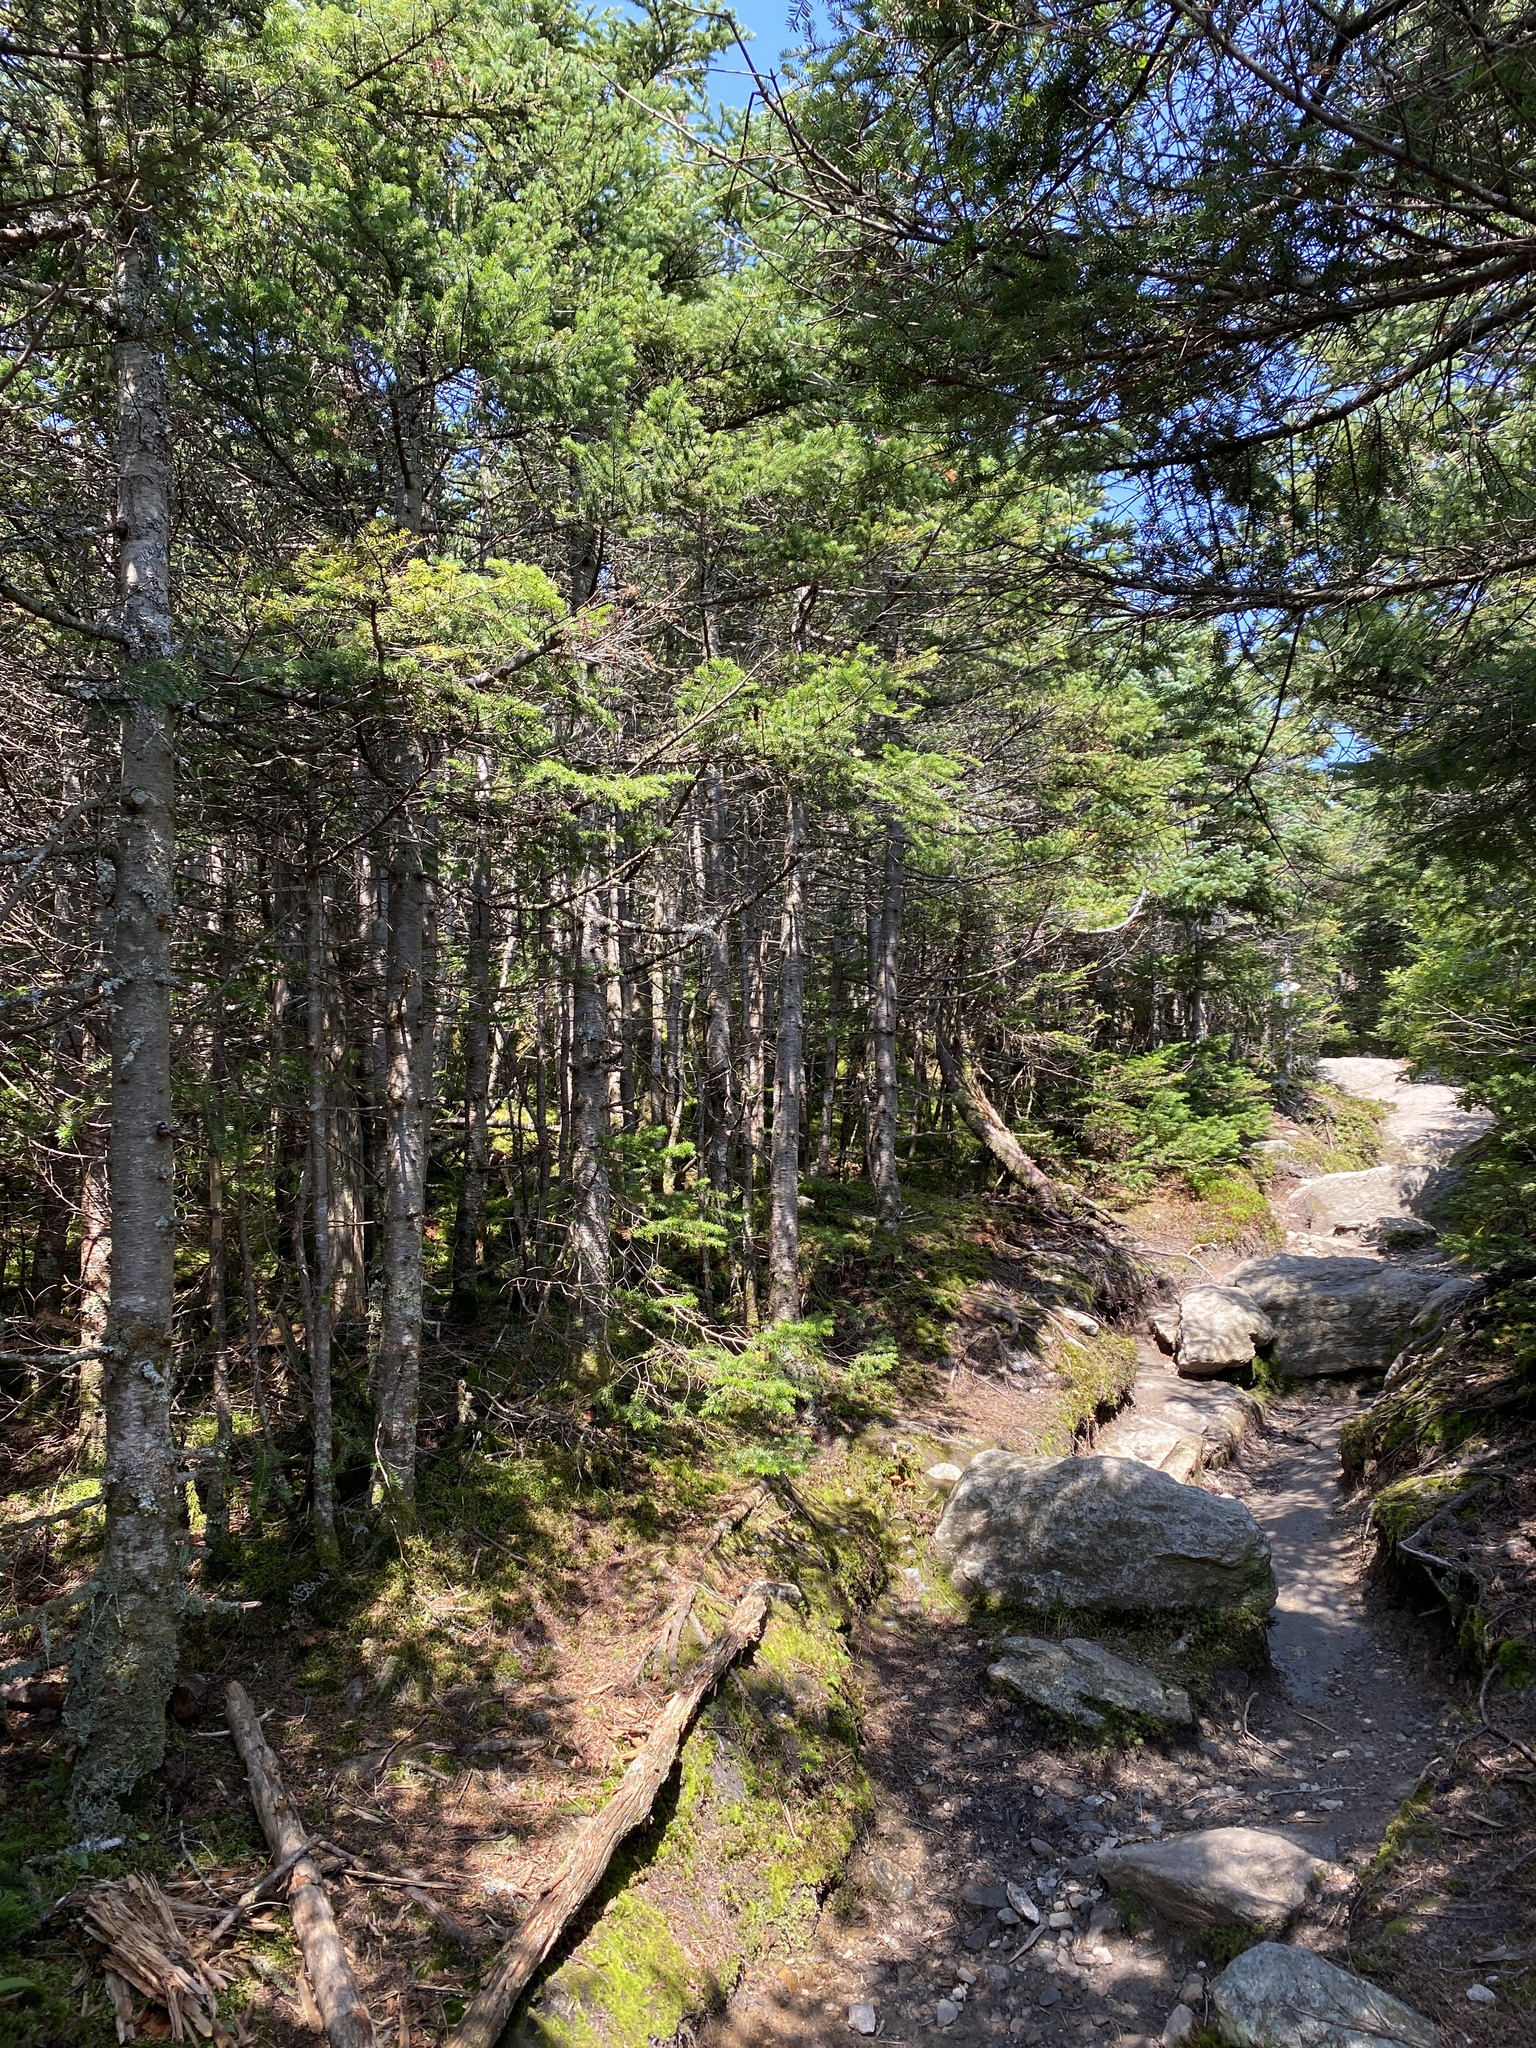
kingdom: Plantae
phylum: Tracheophyta
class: Pinopsida
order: Pinales
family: Pinaceae
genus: Abies
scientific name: Abies balsamea
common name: Balsam fir
